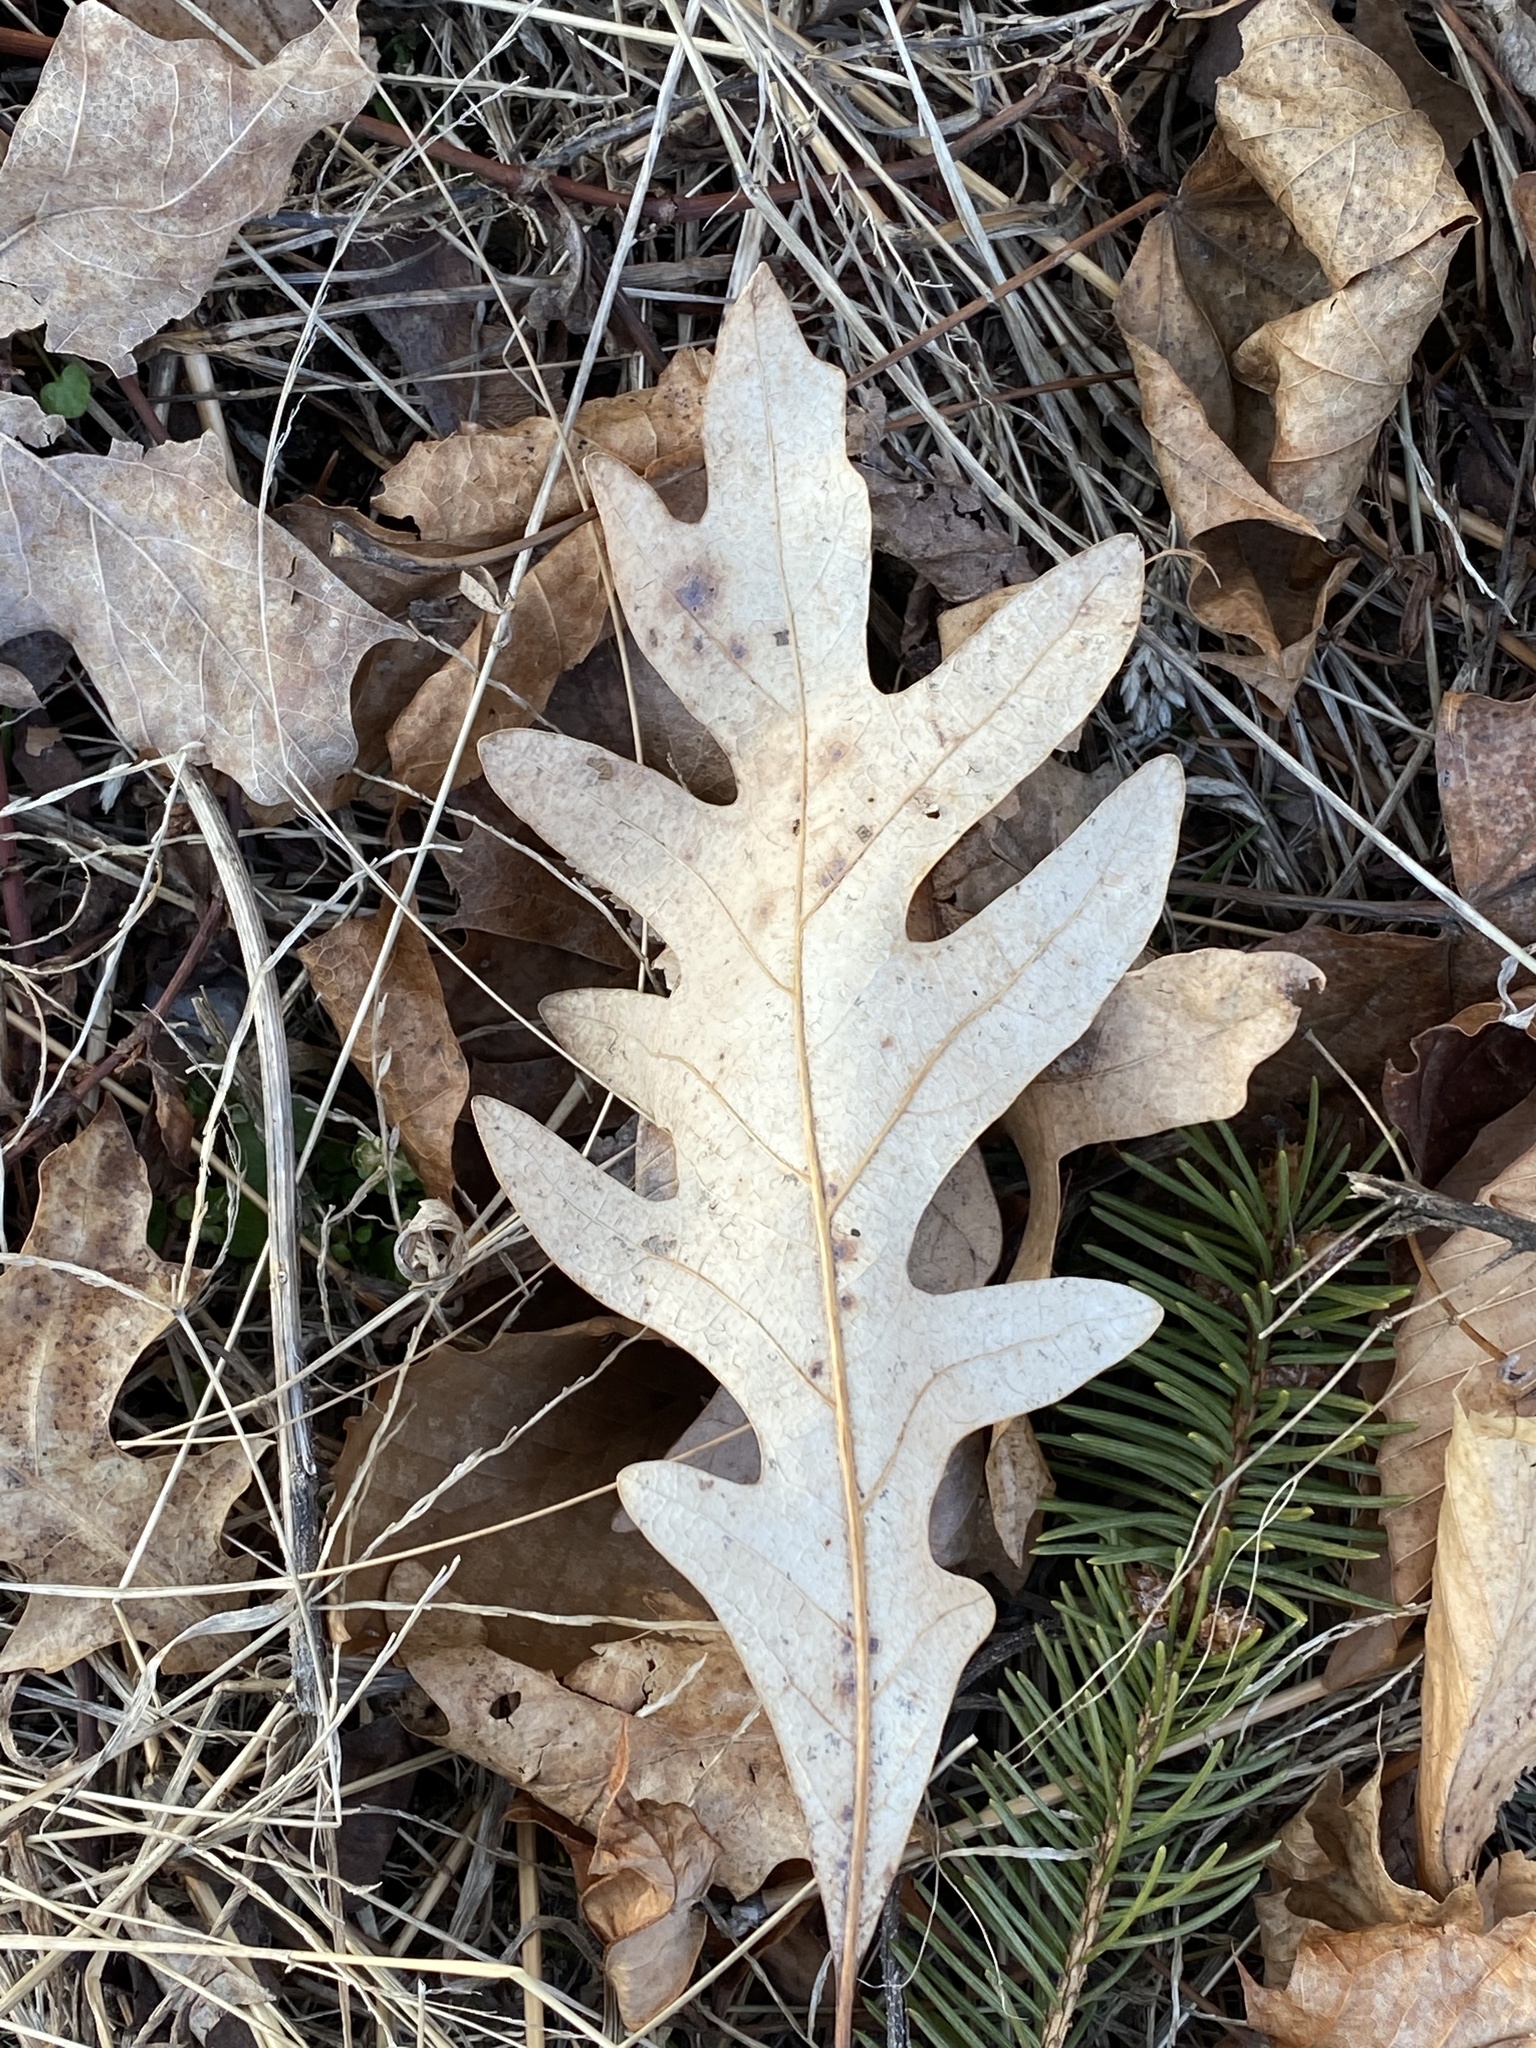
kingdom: Plantae
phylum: Tracheophyta
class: Magnoliopsida
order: Fagales
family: Fagaceae
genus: Quercus
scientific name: Quercus alba
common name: White oak
